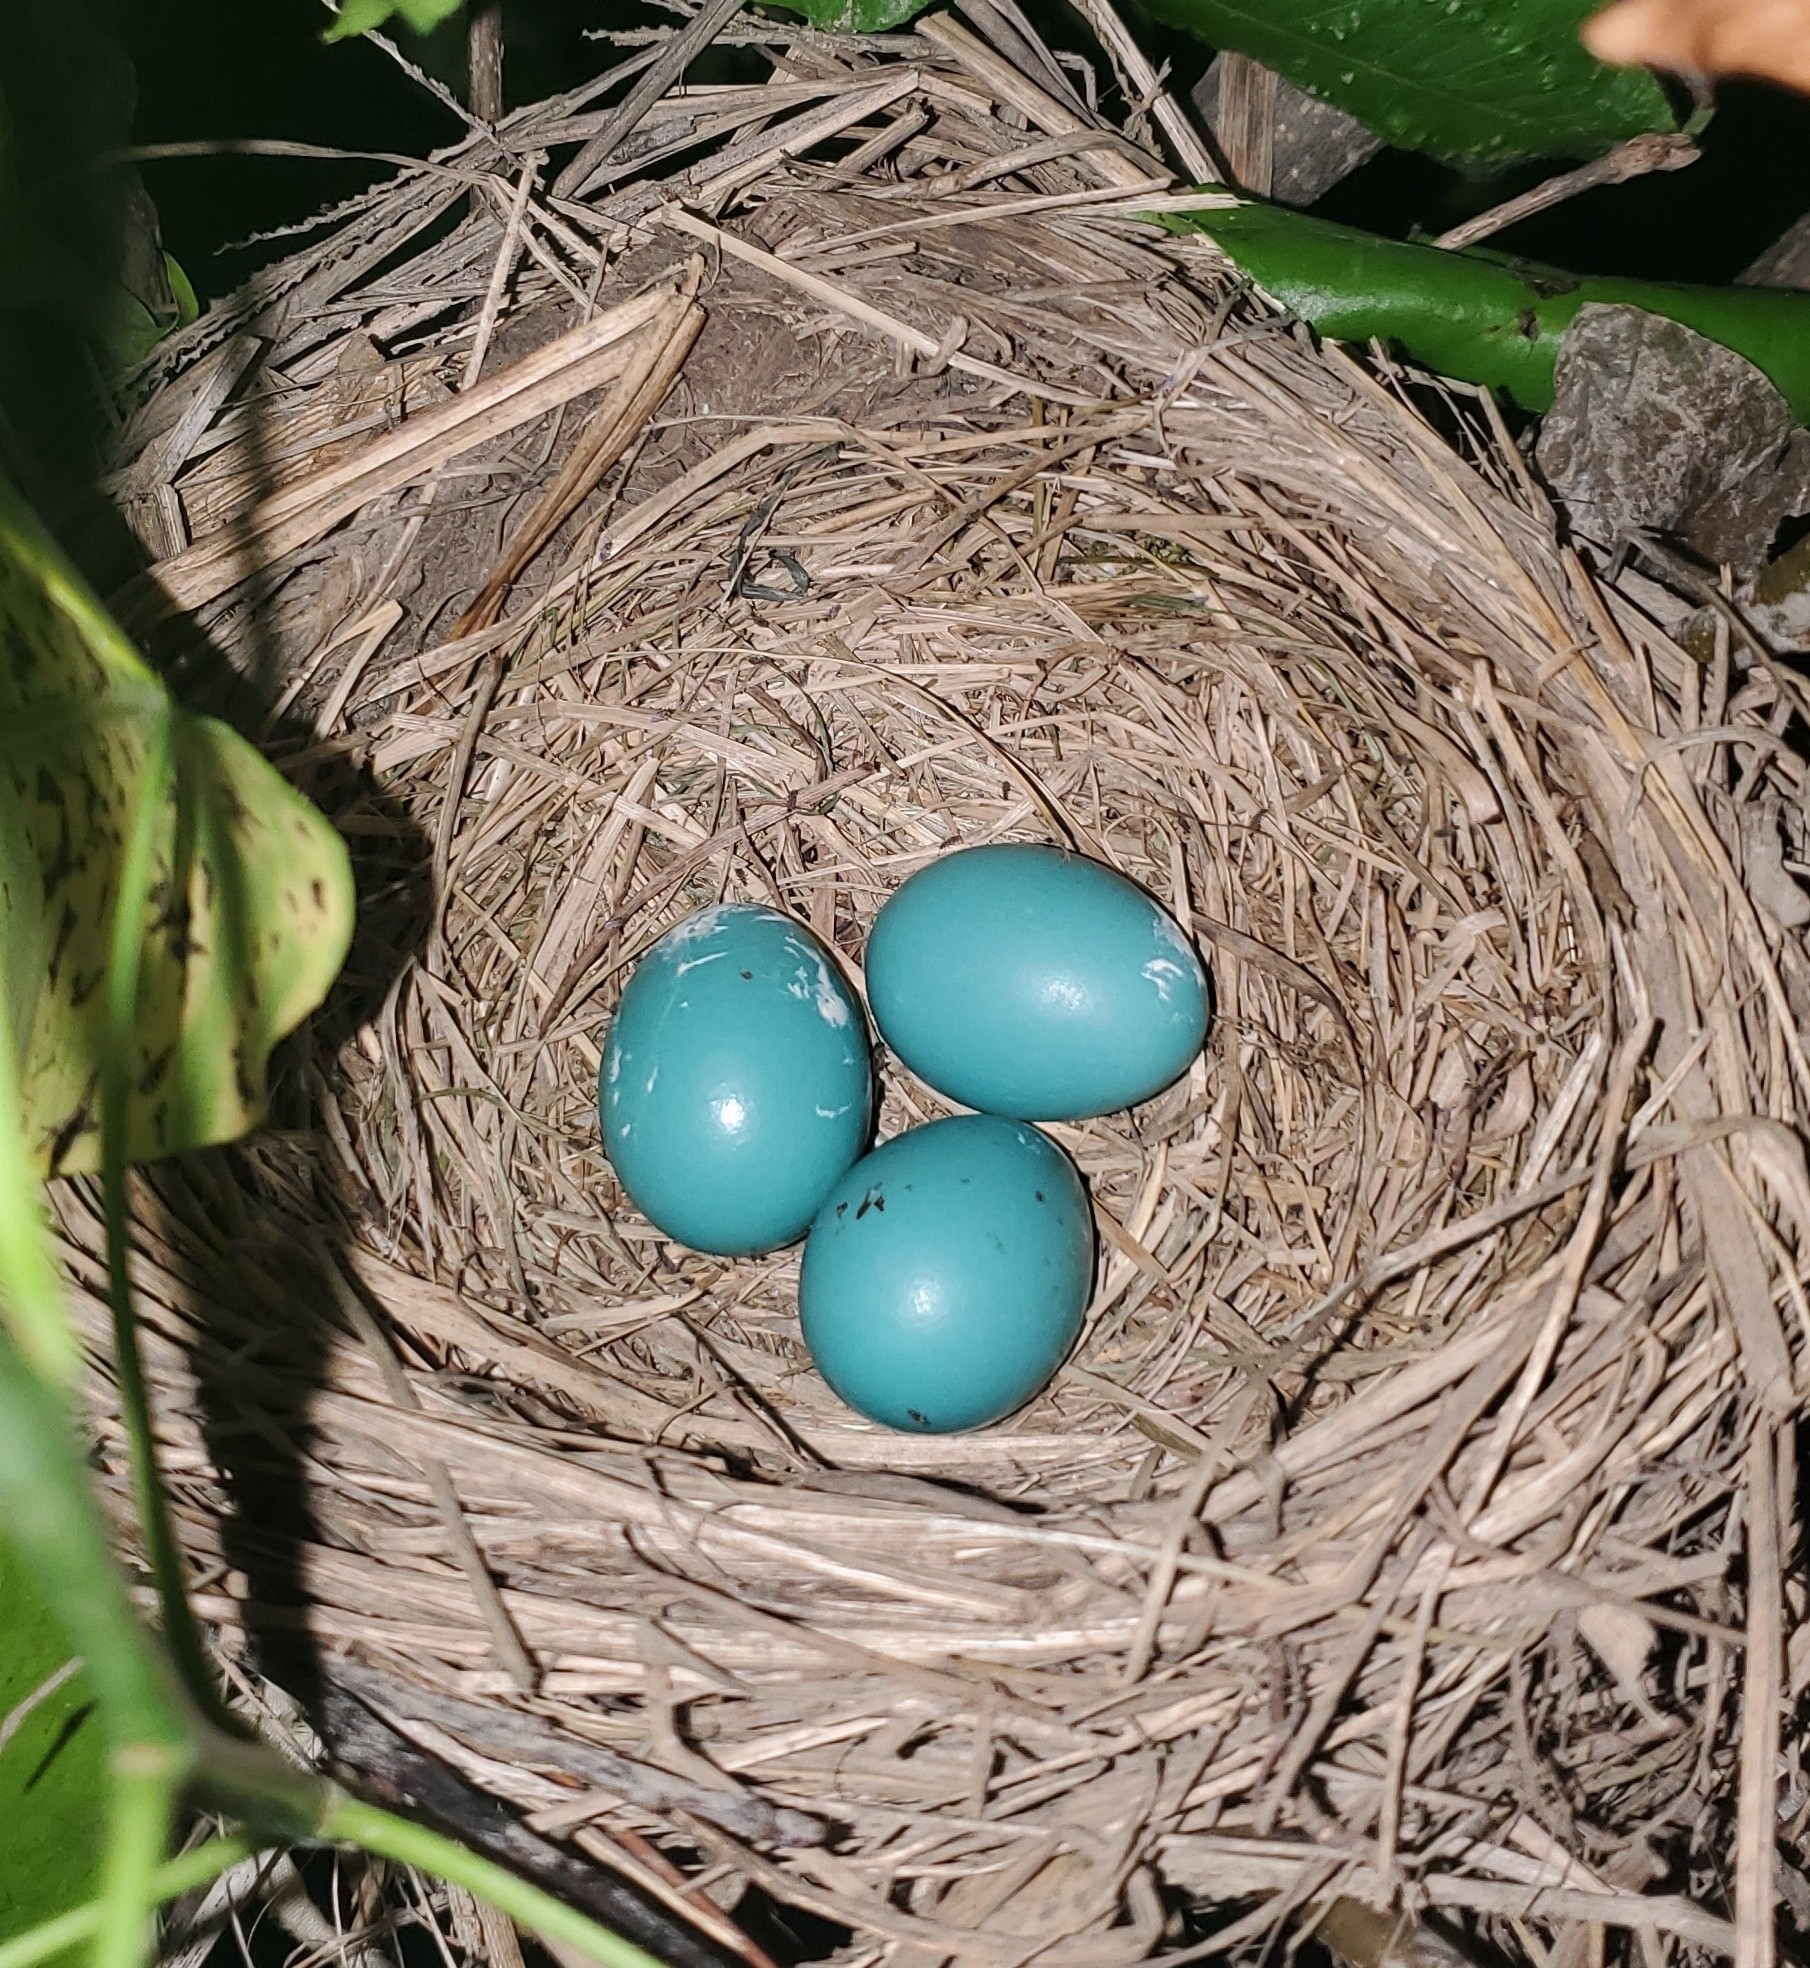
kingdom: Animalia
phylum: Chordata
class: Aves
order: Passeriformes
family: Turdidae
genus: Turdus
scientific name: Turdus migratorius
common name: American robin
